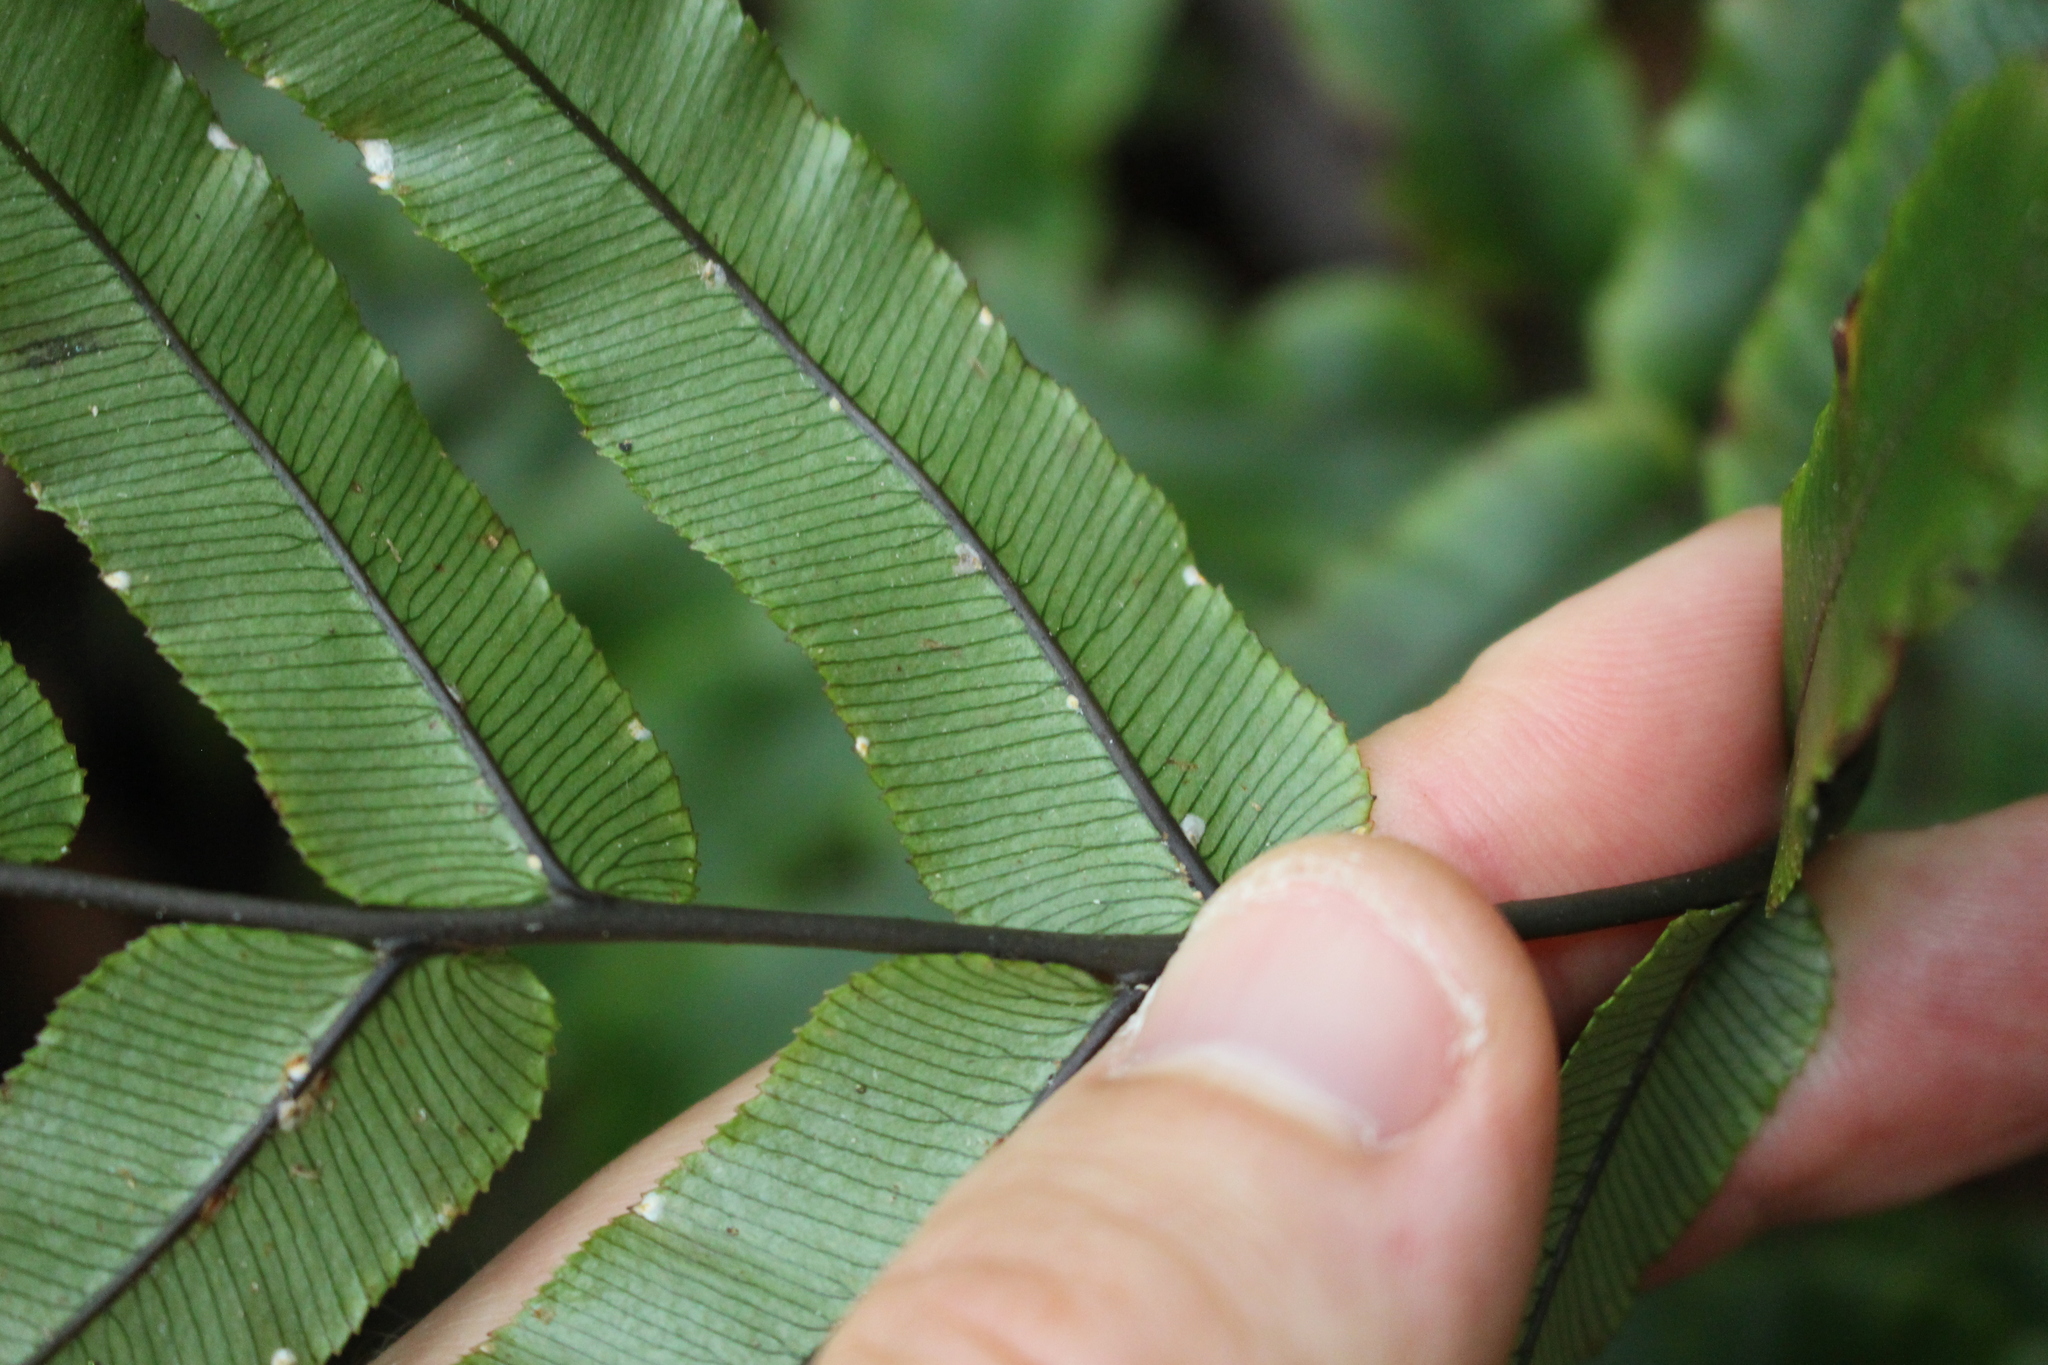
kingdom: Plantae
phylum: Tracheophyta
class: Polypodiopsida
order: Polypodiales
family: Blechnaceae
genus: Parablechnum
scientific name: Parablechnum procerum
